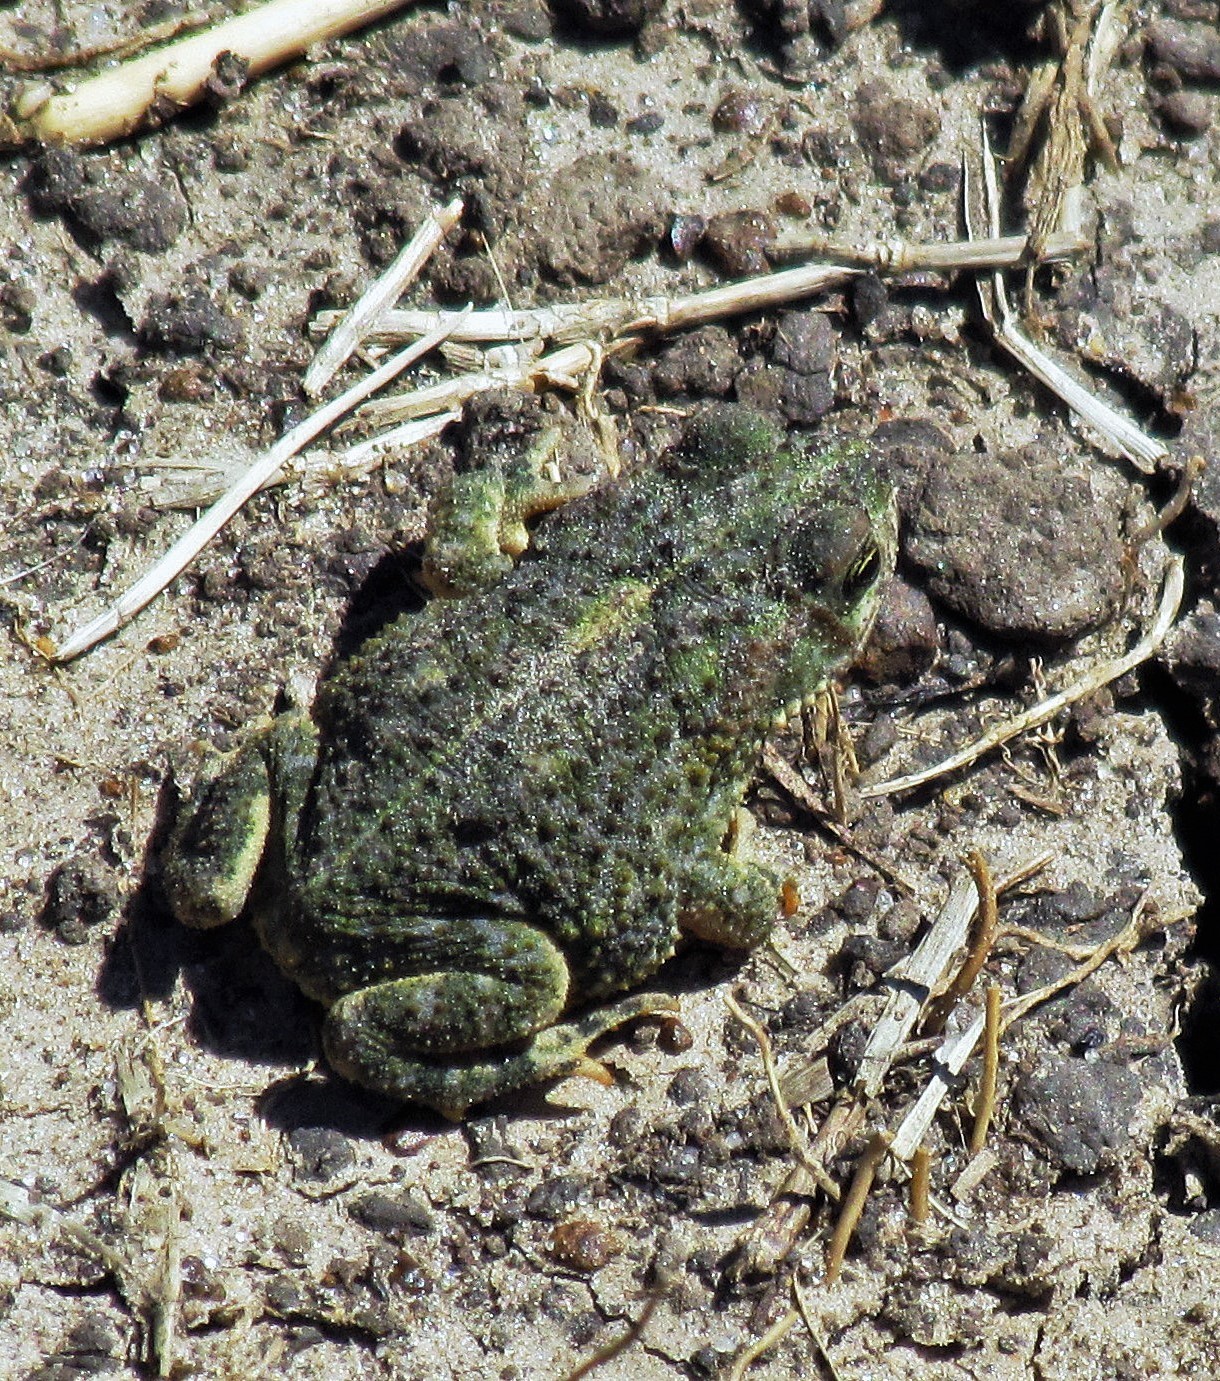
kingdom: Animalia
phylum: Chordata
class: Amphibia
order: Anura
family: Bufonidae
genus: Rhinella
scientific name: Rhinella dorbignyi
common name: D´orbigny’s toad
